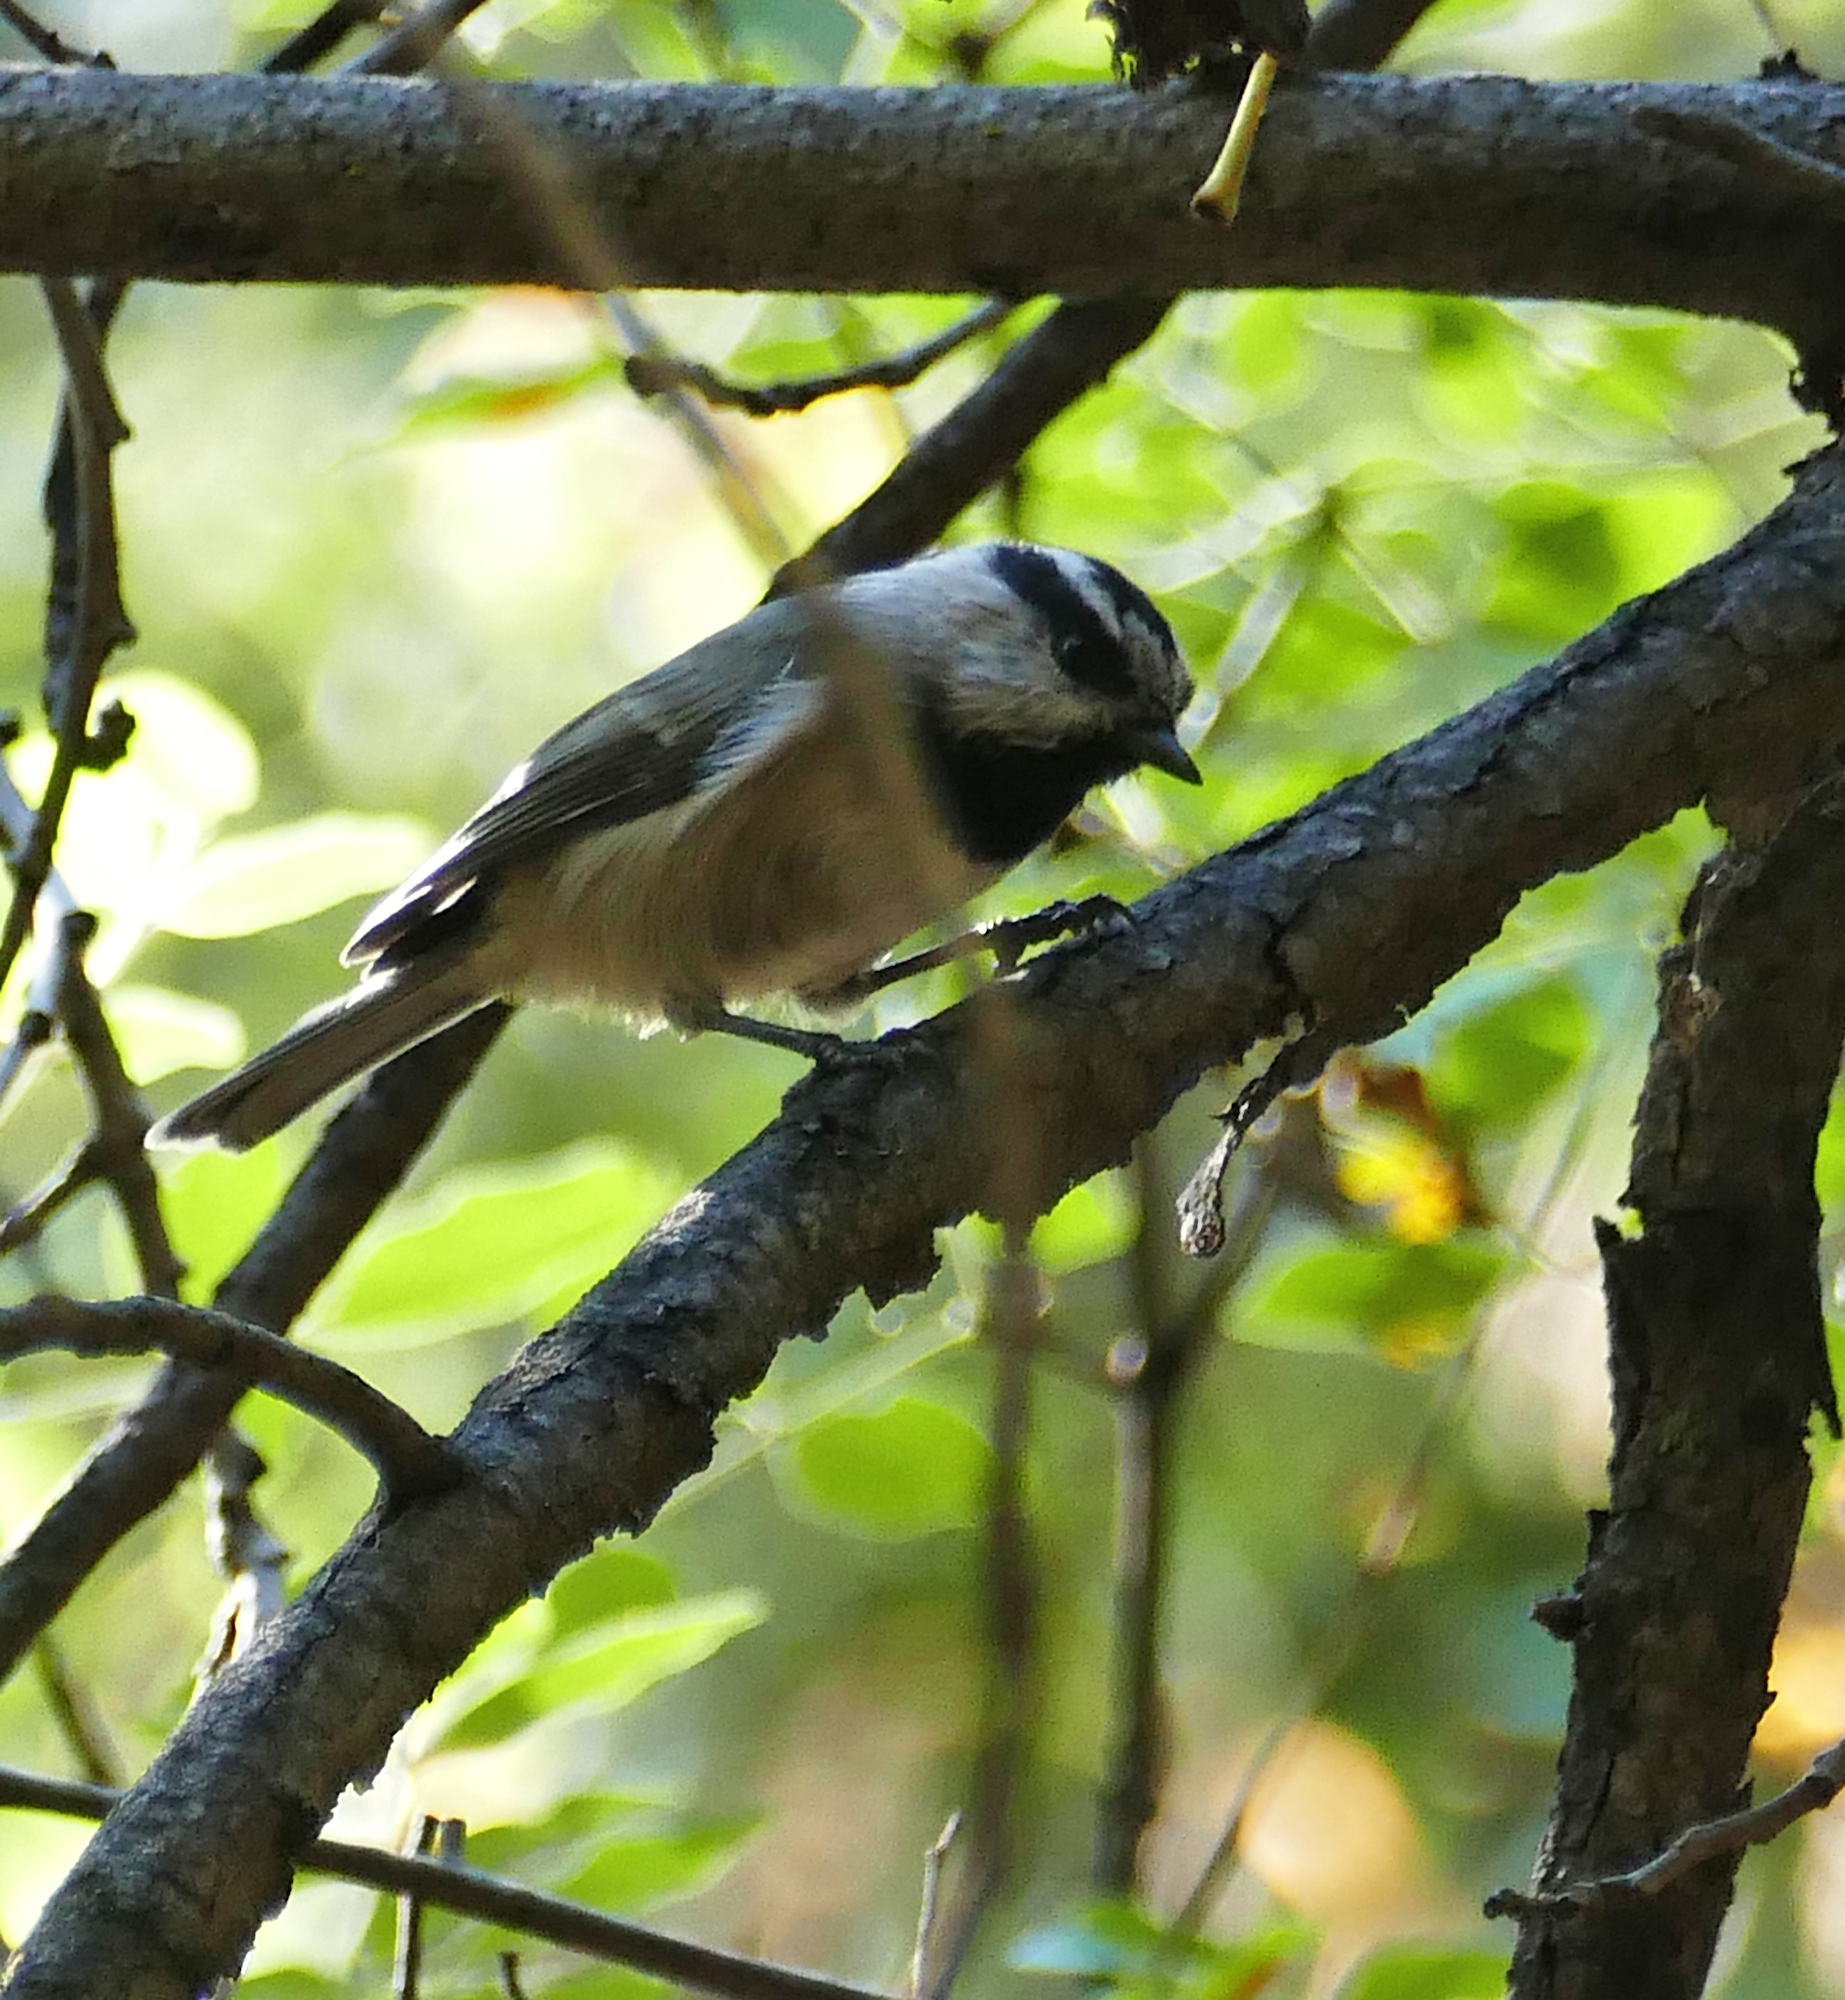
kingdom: Animalia
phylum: Chordata
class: Aves
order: Passeriformes
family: Paridae
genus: Poecile
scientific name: Poecile gambeli
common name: Mountain chickadee
